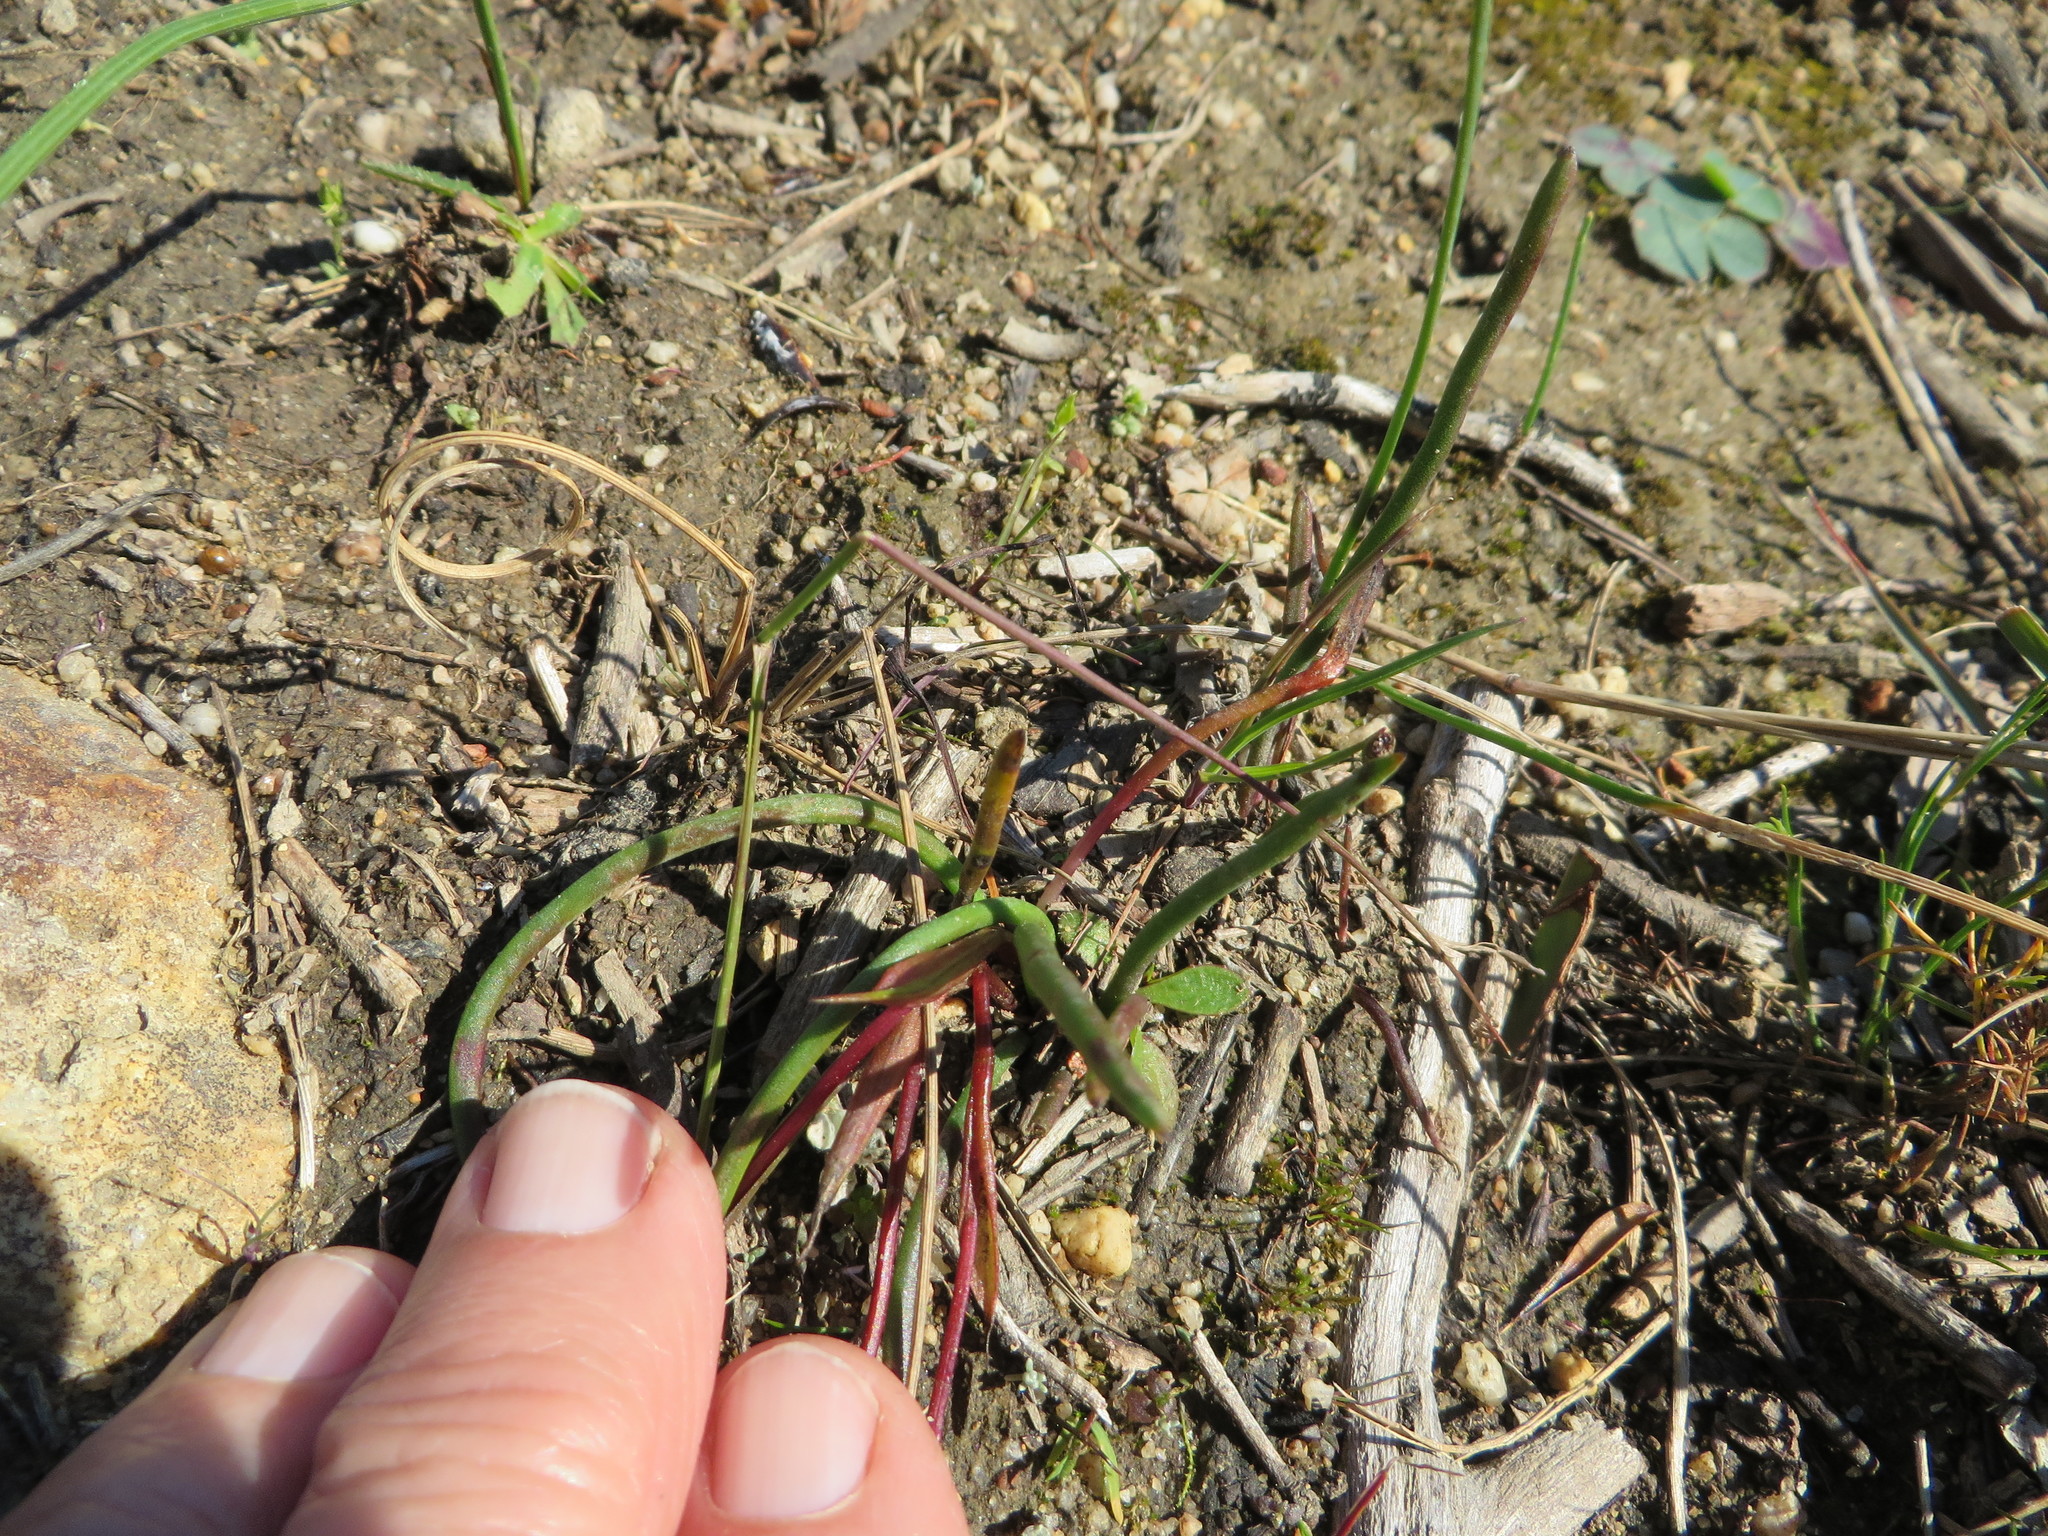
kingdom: Plantae
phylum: Tracheophyta
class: Liliopsida
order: Asparagales
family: Hypoxidaceae
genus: Pauridia
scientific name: Pauridia affinis
